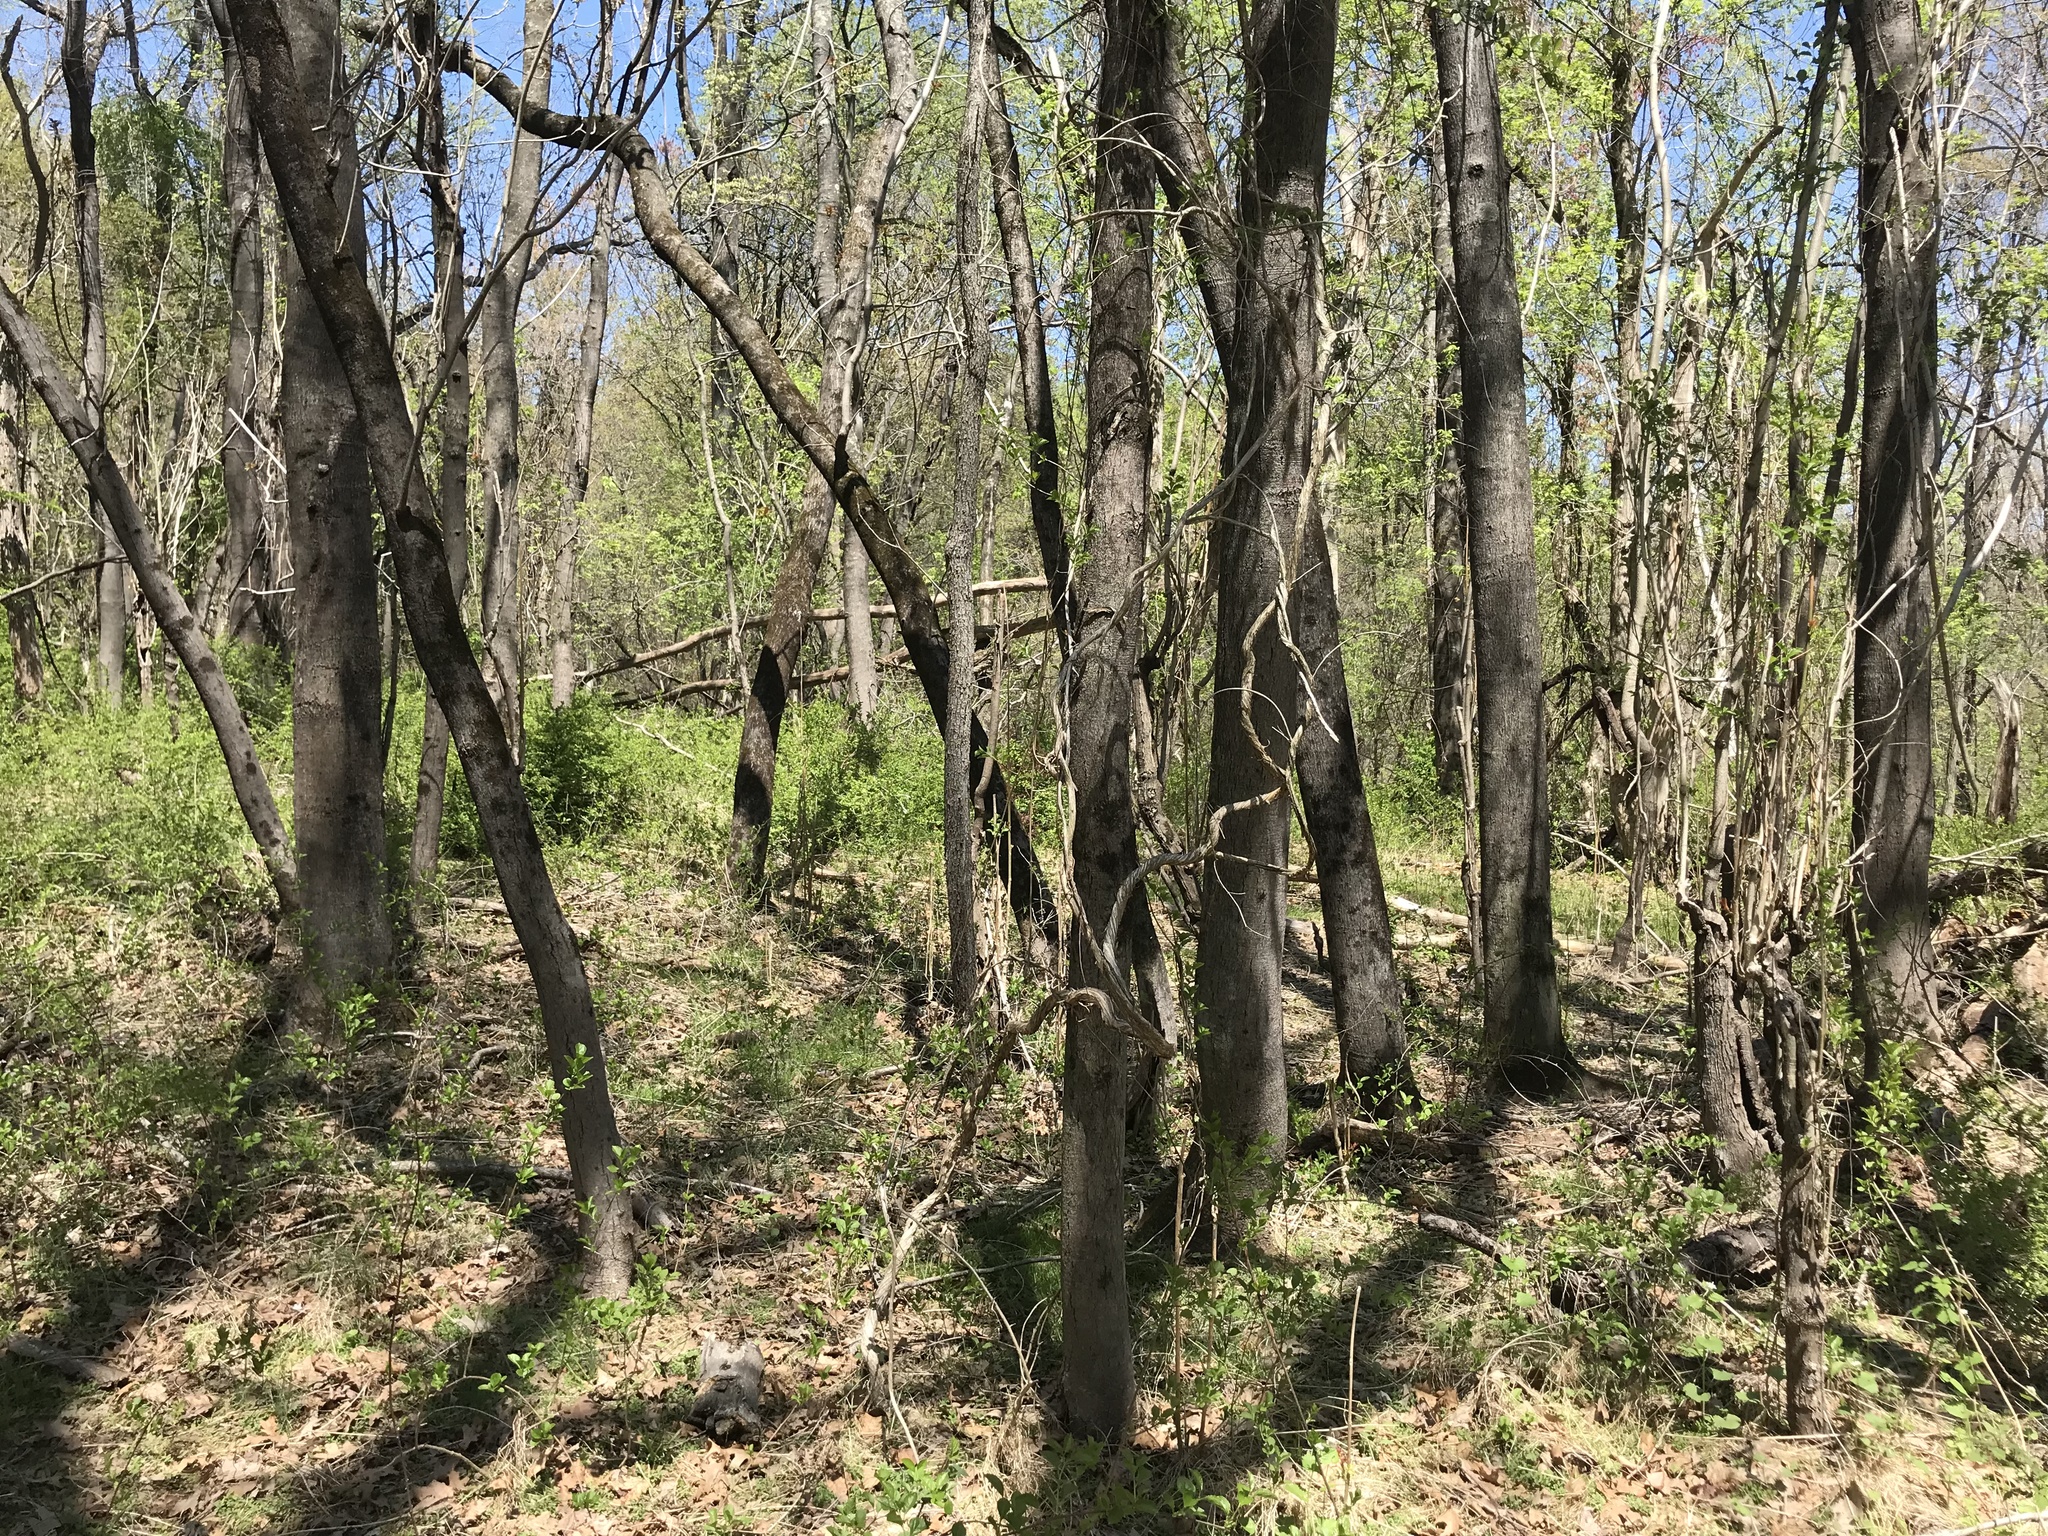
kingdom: Plantae
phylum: Tracheophyta
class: Magnoliopsida
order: Sapindales
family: Simaroubaceae
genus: Ailanthus
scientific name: Ailanthus altissima
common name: Tree-of-heaven
